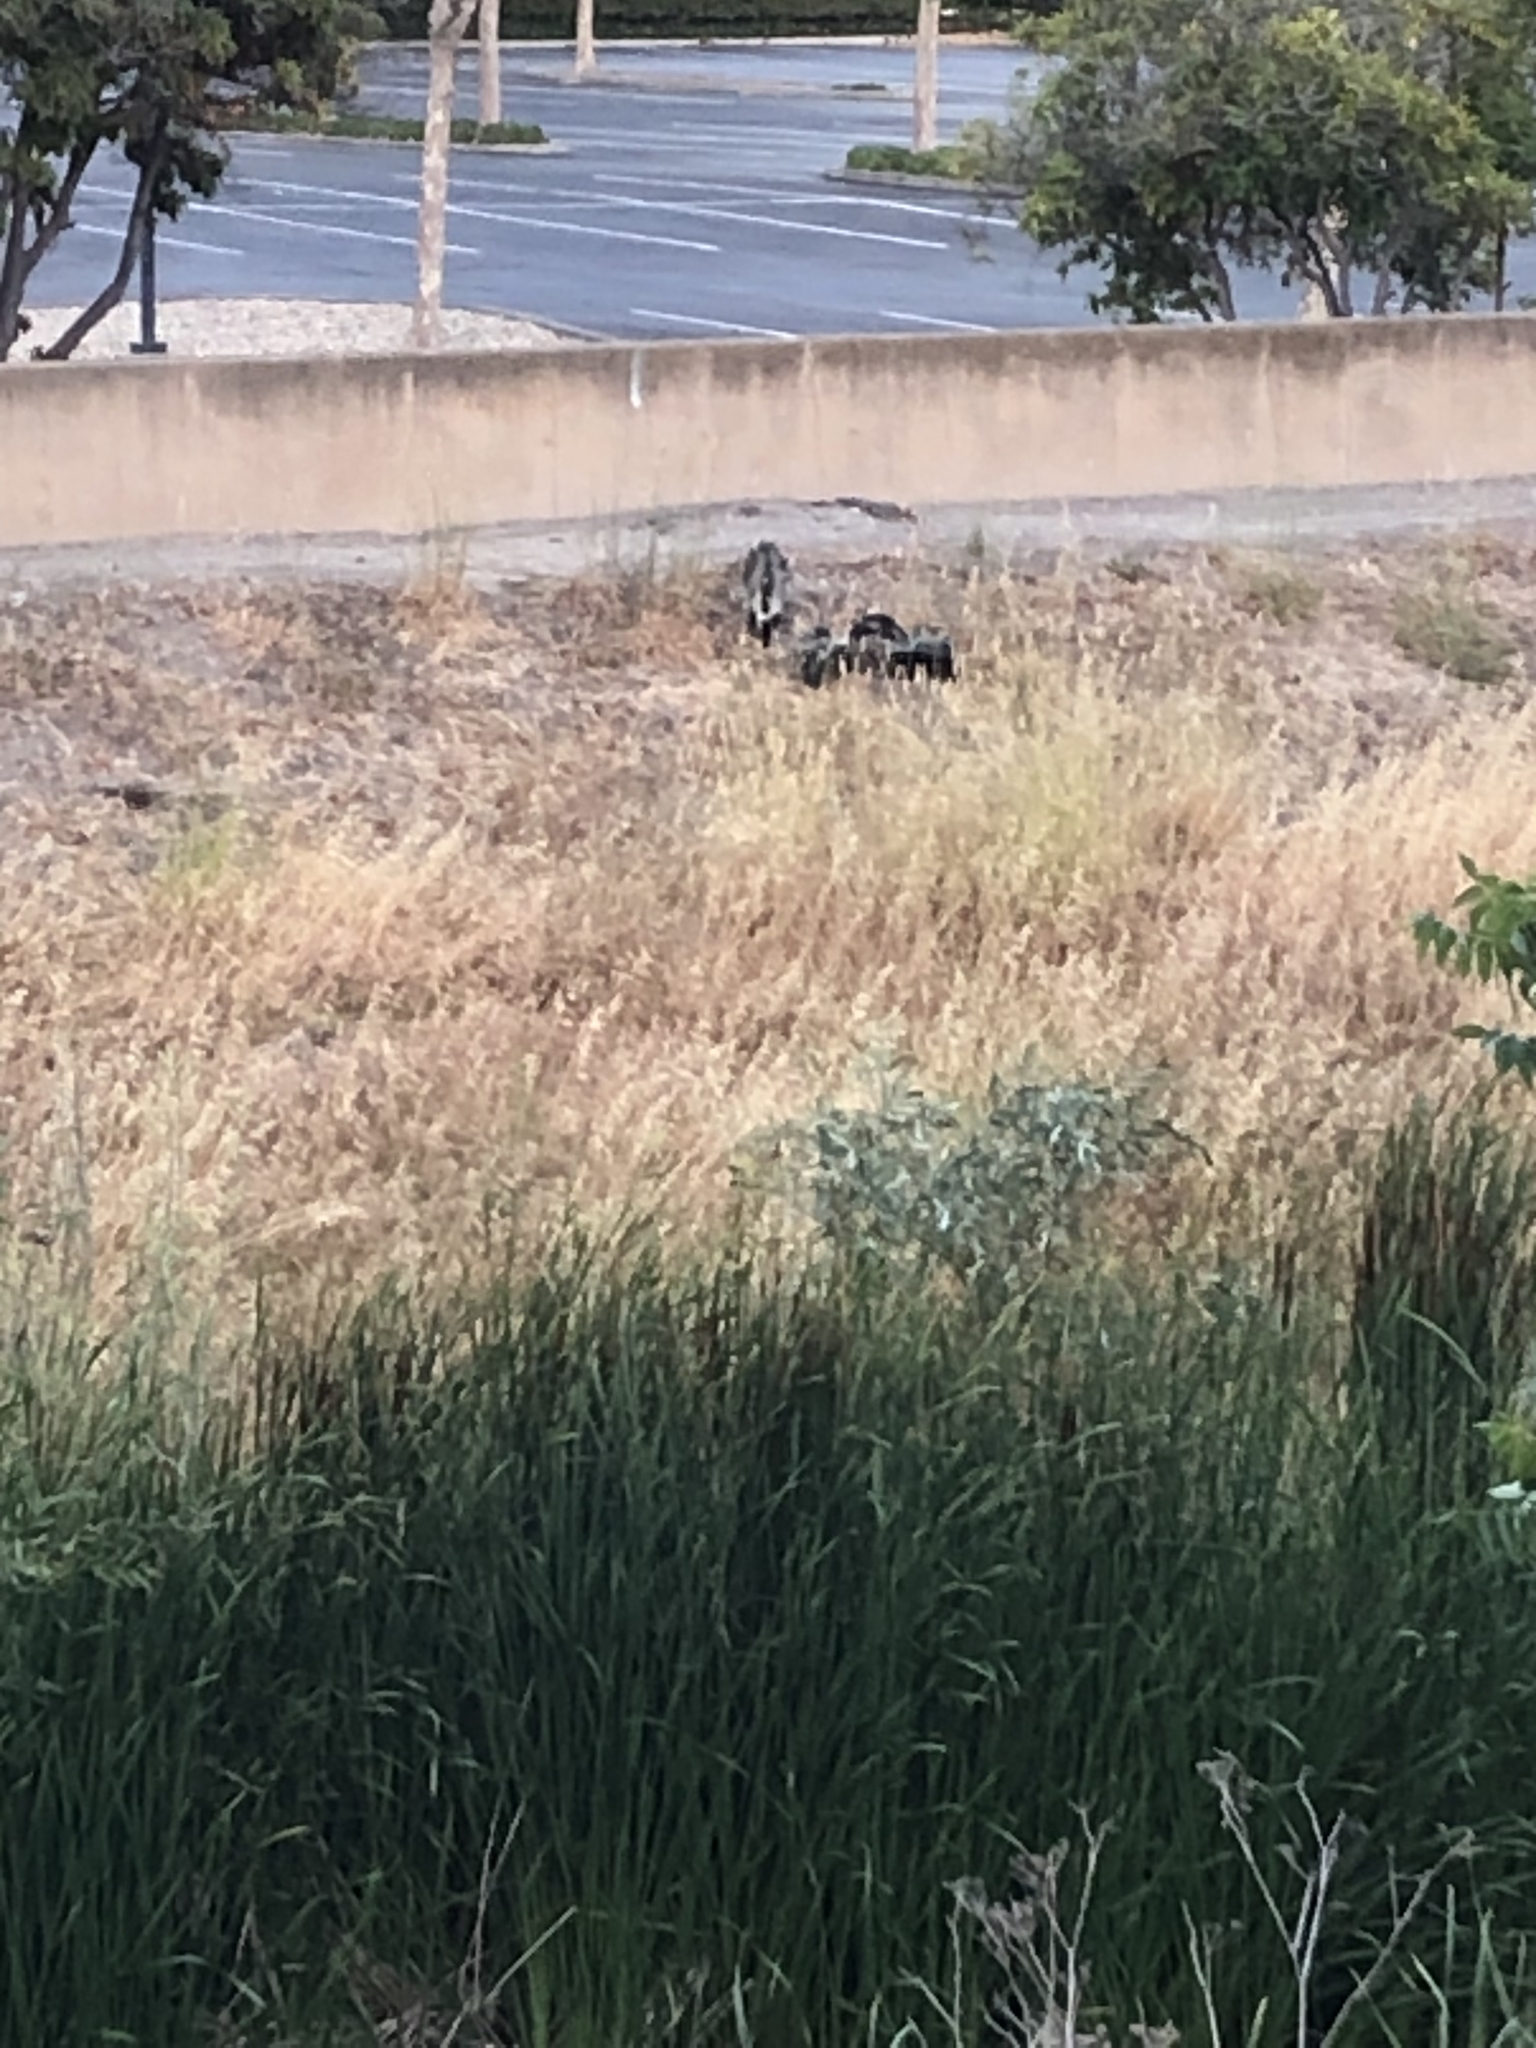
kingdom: Animalia
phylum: Chordata
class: Mammalia
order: Carnivora
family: Mephitidae
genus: Mephitis
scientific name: Mephitis mephitis
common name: Striped skunk
